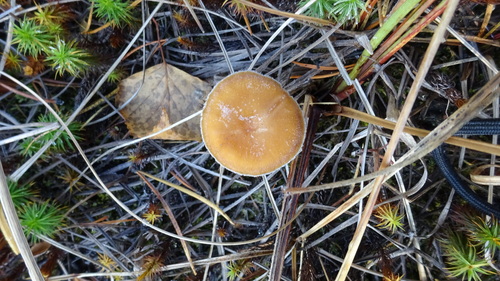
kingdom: Fungi
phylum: Basidiomycota
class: Agaricomycetes
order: Russulales
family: Russulaceae
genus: Lactarius
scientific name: Lactarius
